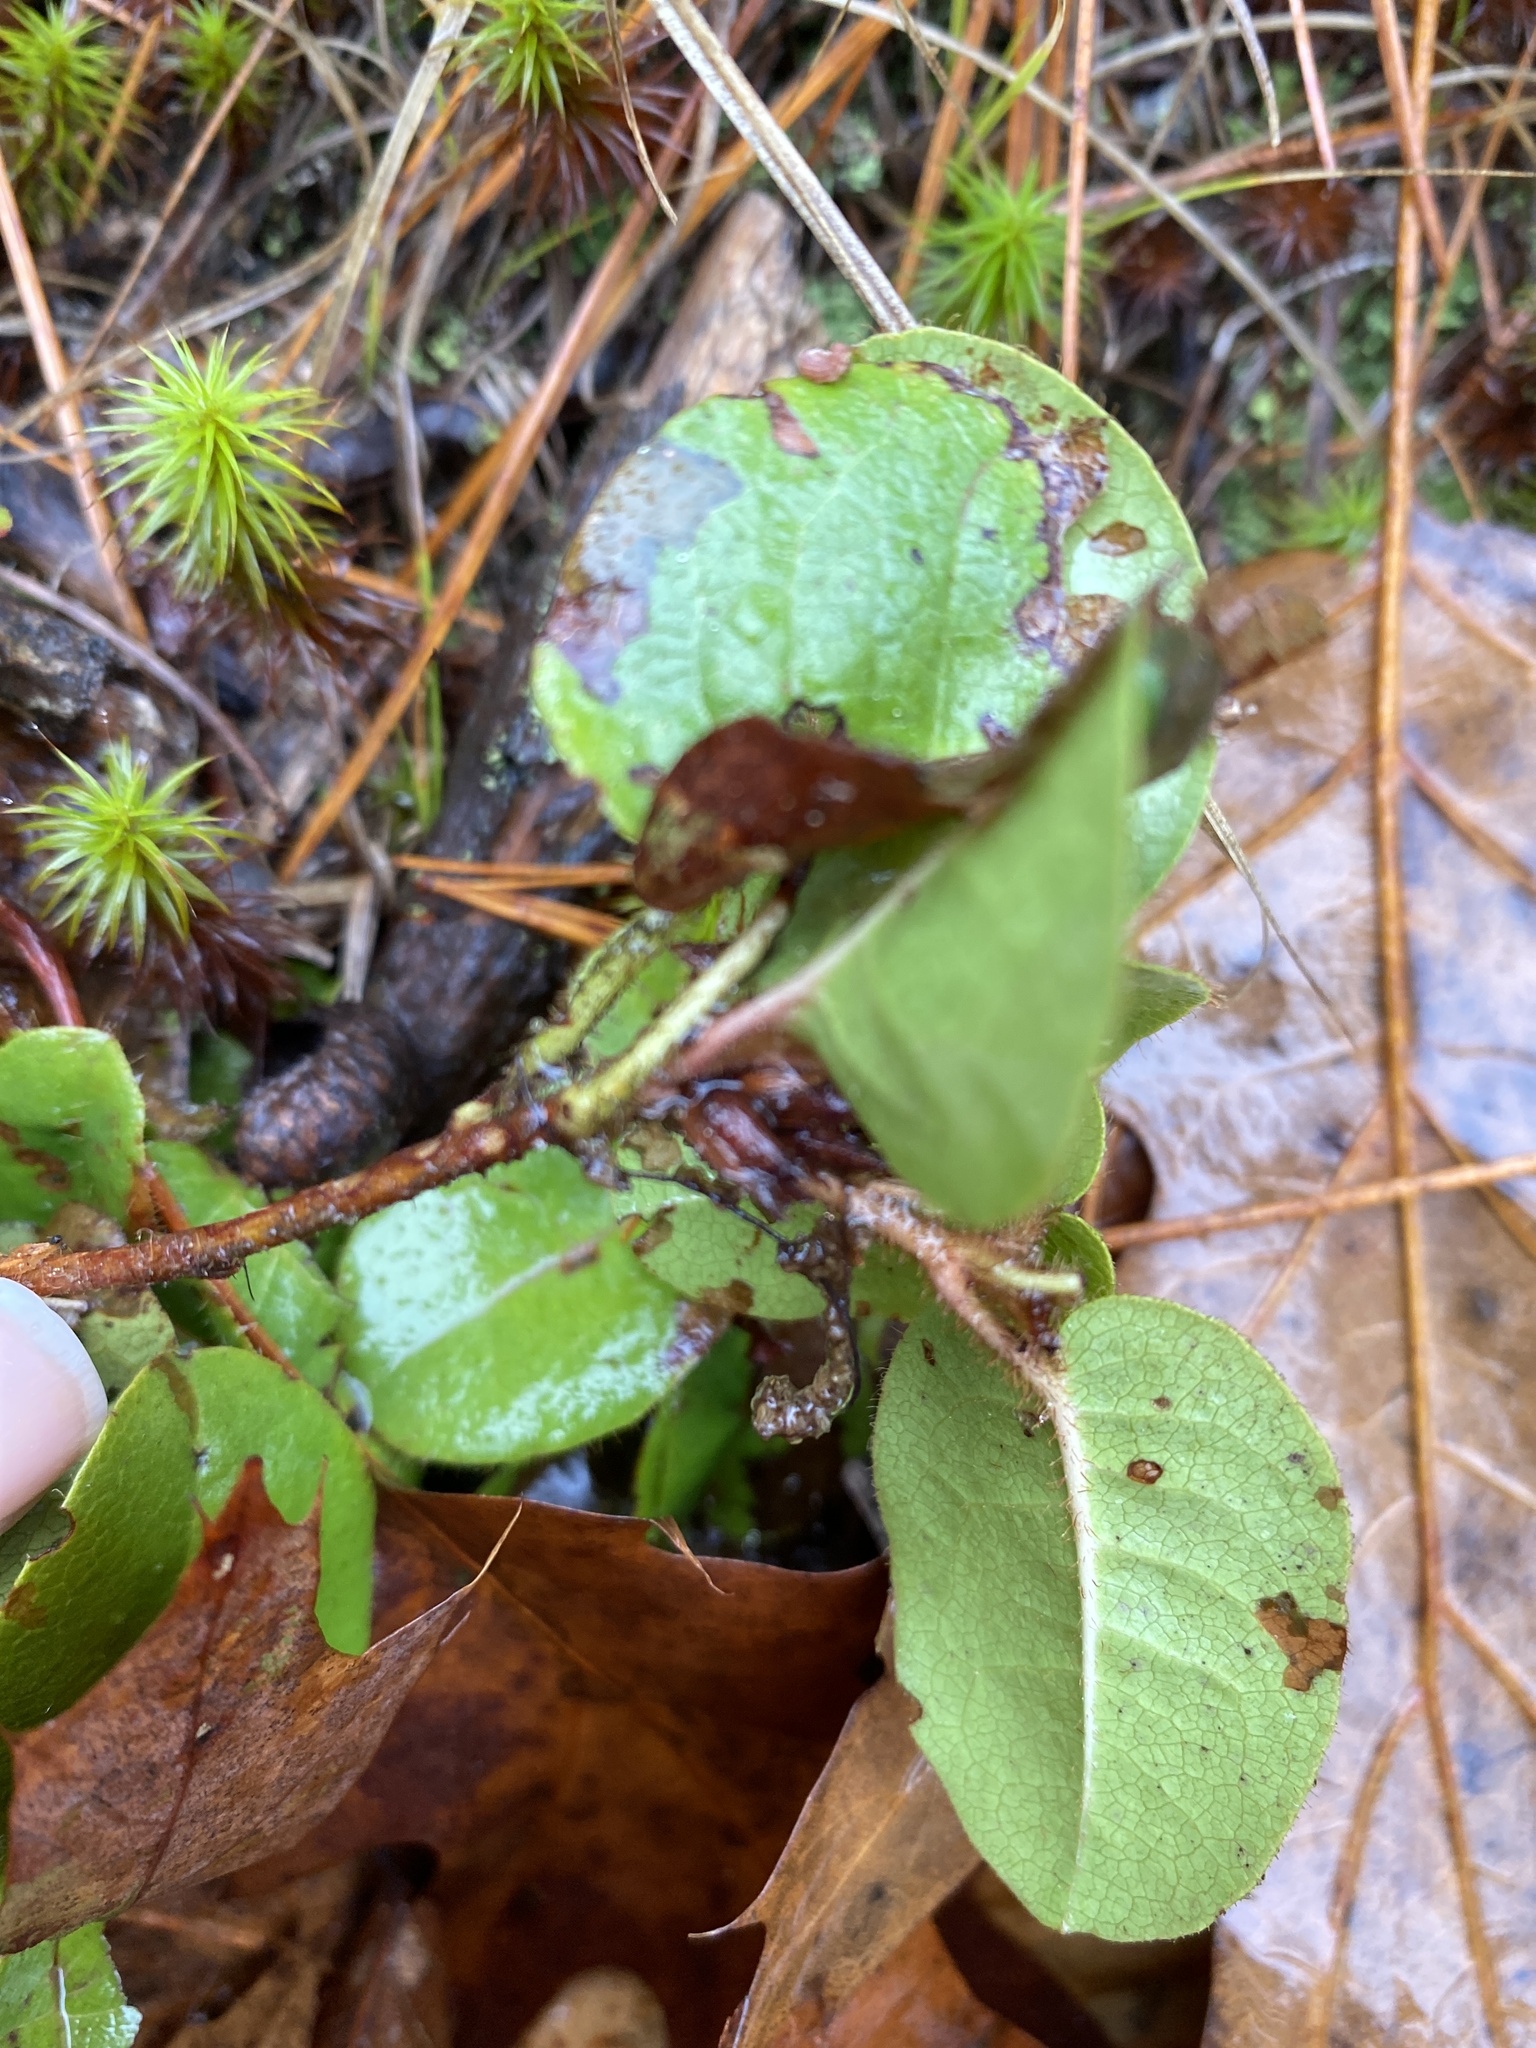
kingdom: Plantae
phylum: Tracheophyta
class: Magnoliopsida
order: Ericales
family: Ericaceae
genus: Epigaea
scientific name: Epigaea repens
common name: Gravelroot
